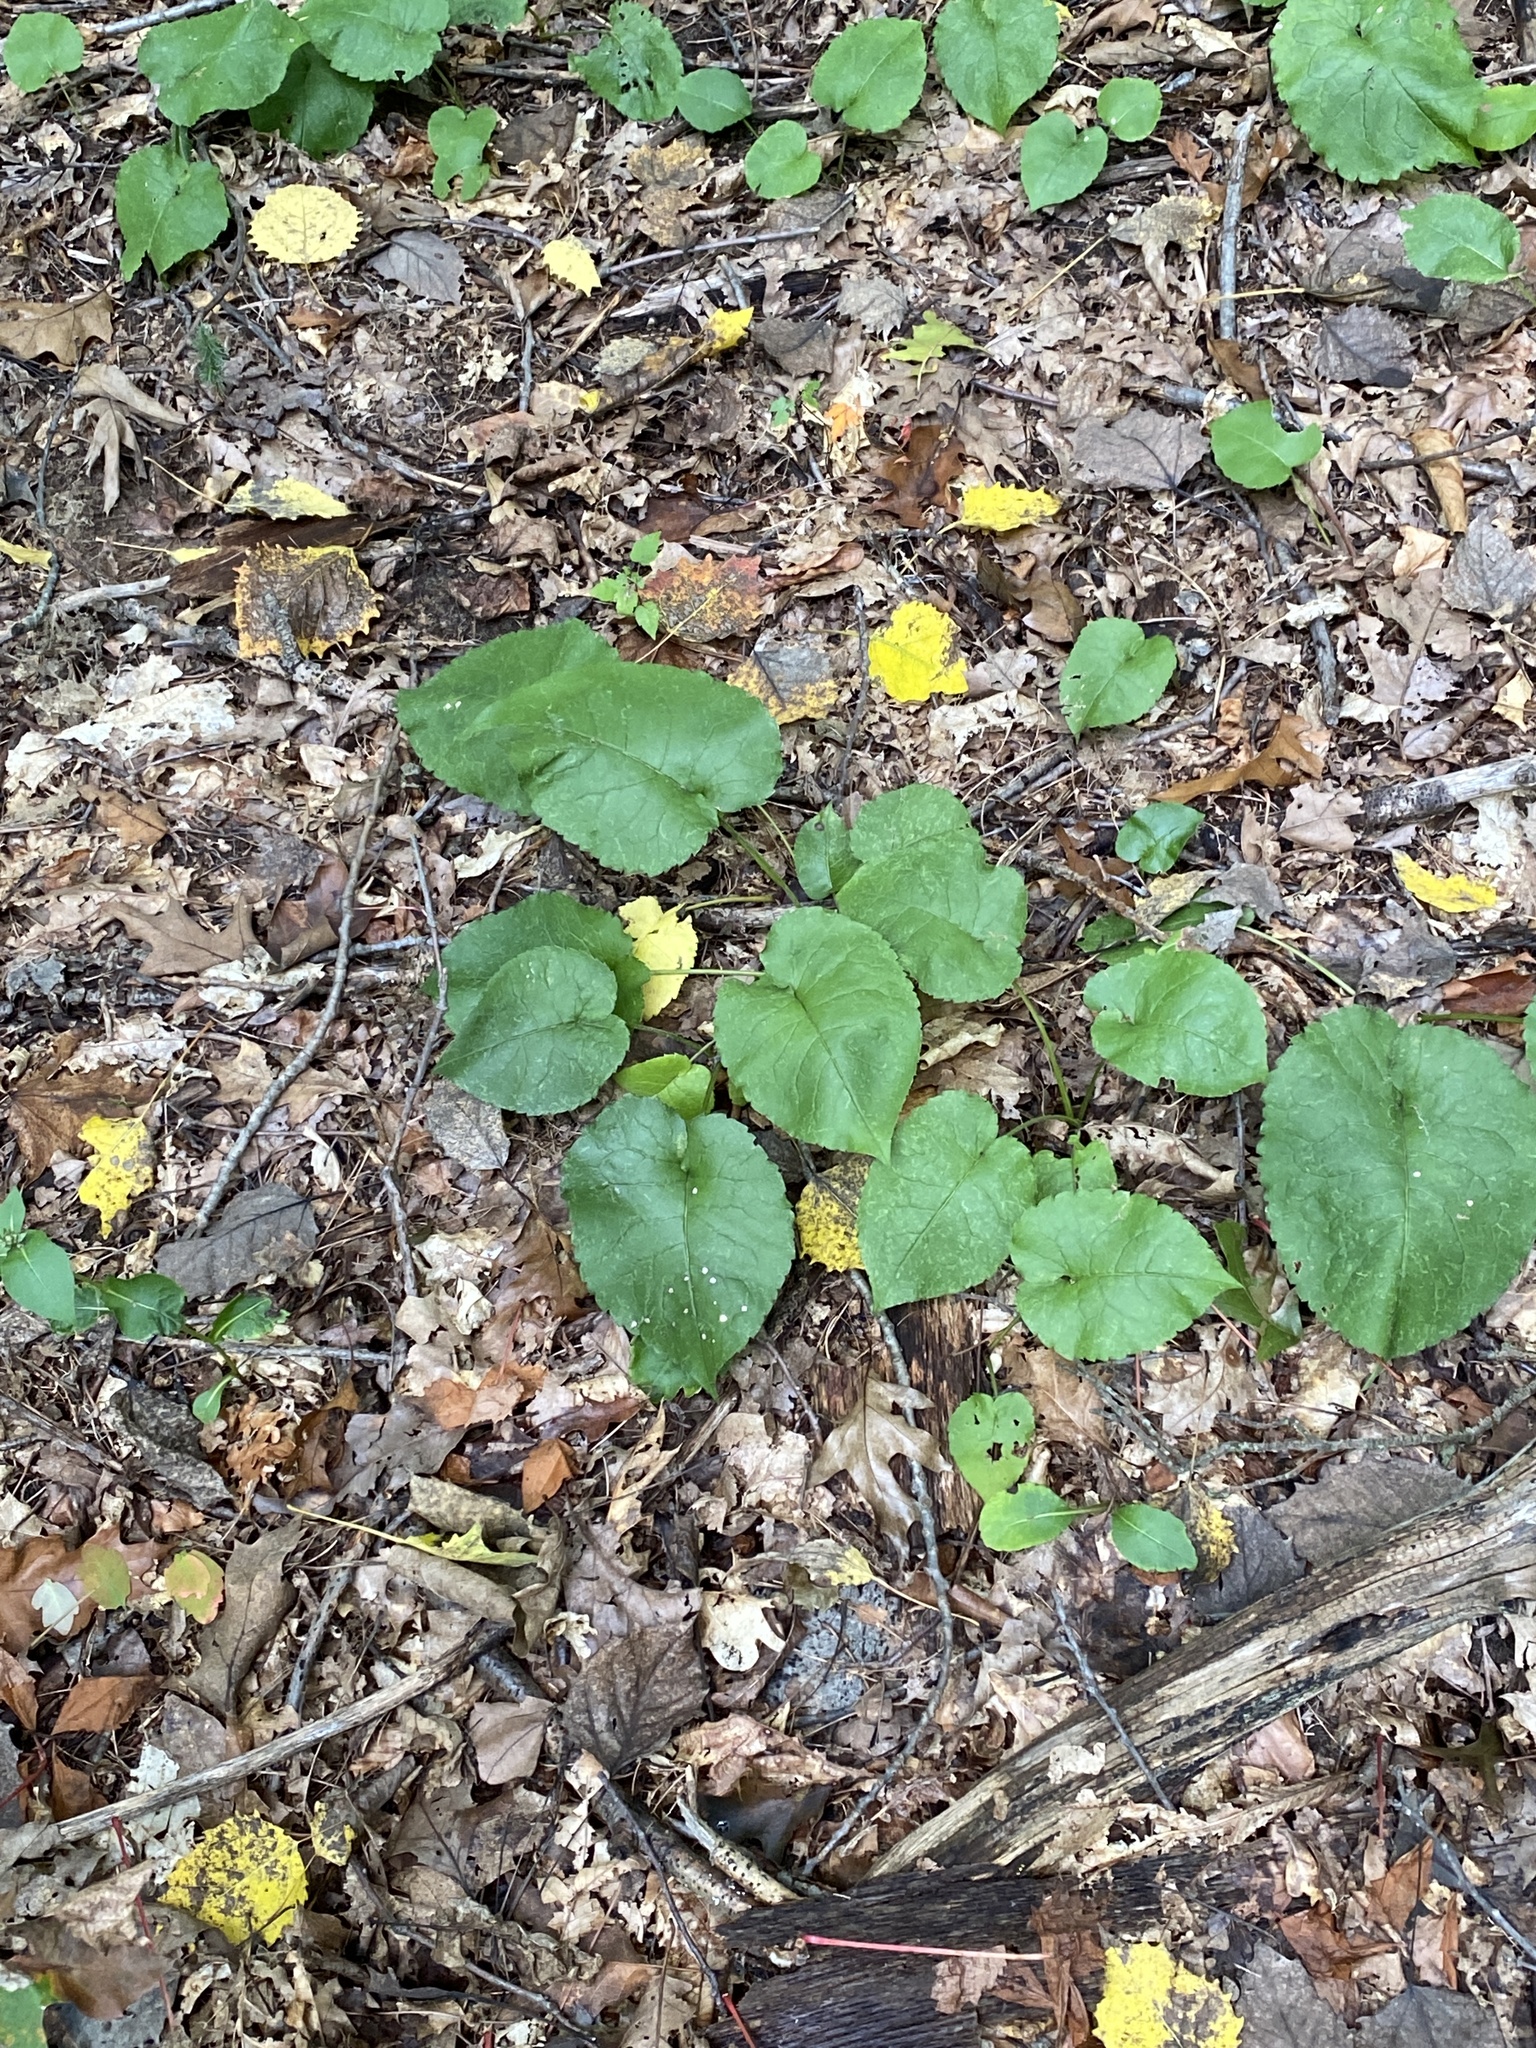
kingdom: Plantae
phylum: Tracheophyta
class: Magnoliopsida
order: Asterales
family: Asteraceae
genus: Eurybia
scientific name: Eurybia macrophylla
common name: Big-leaved aster
